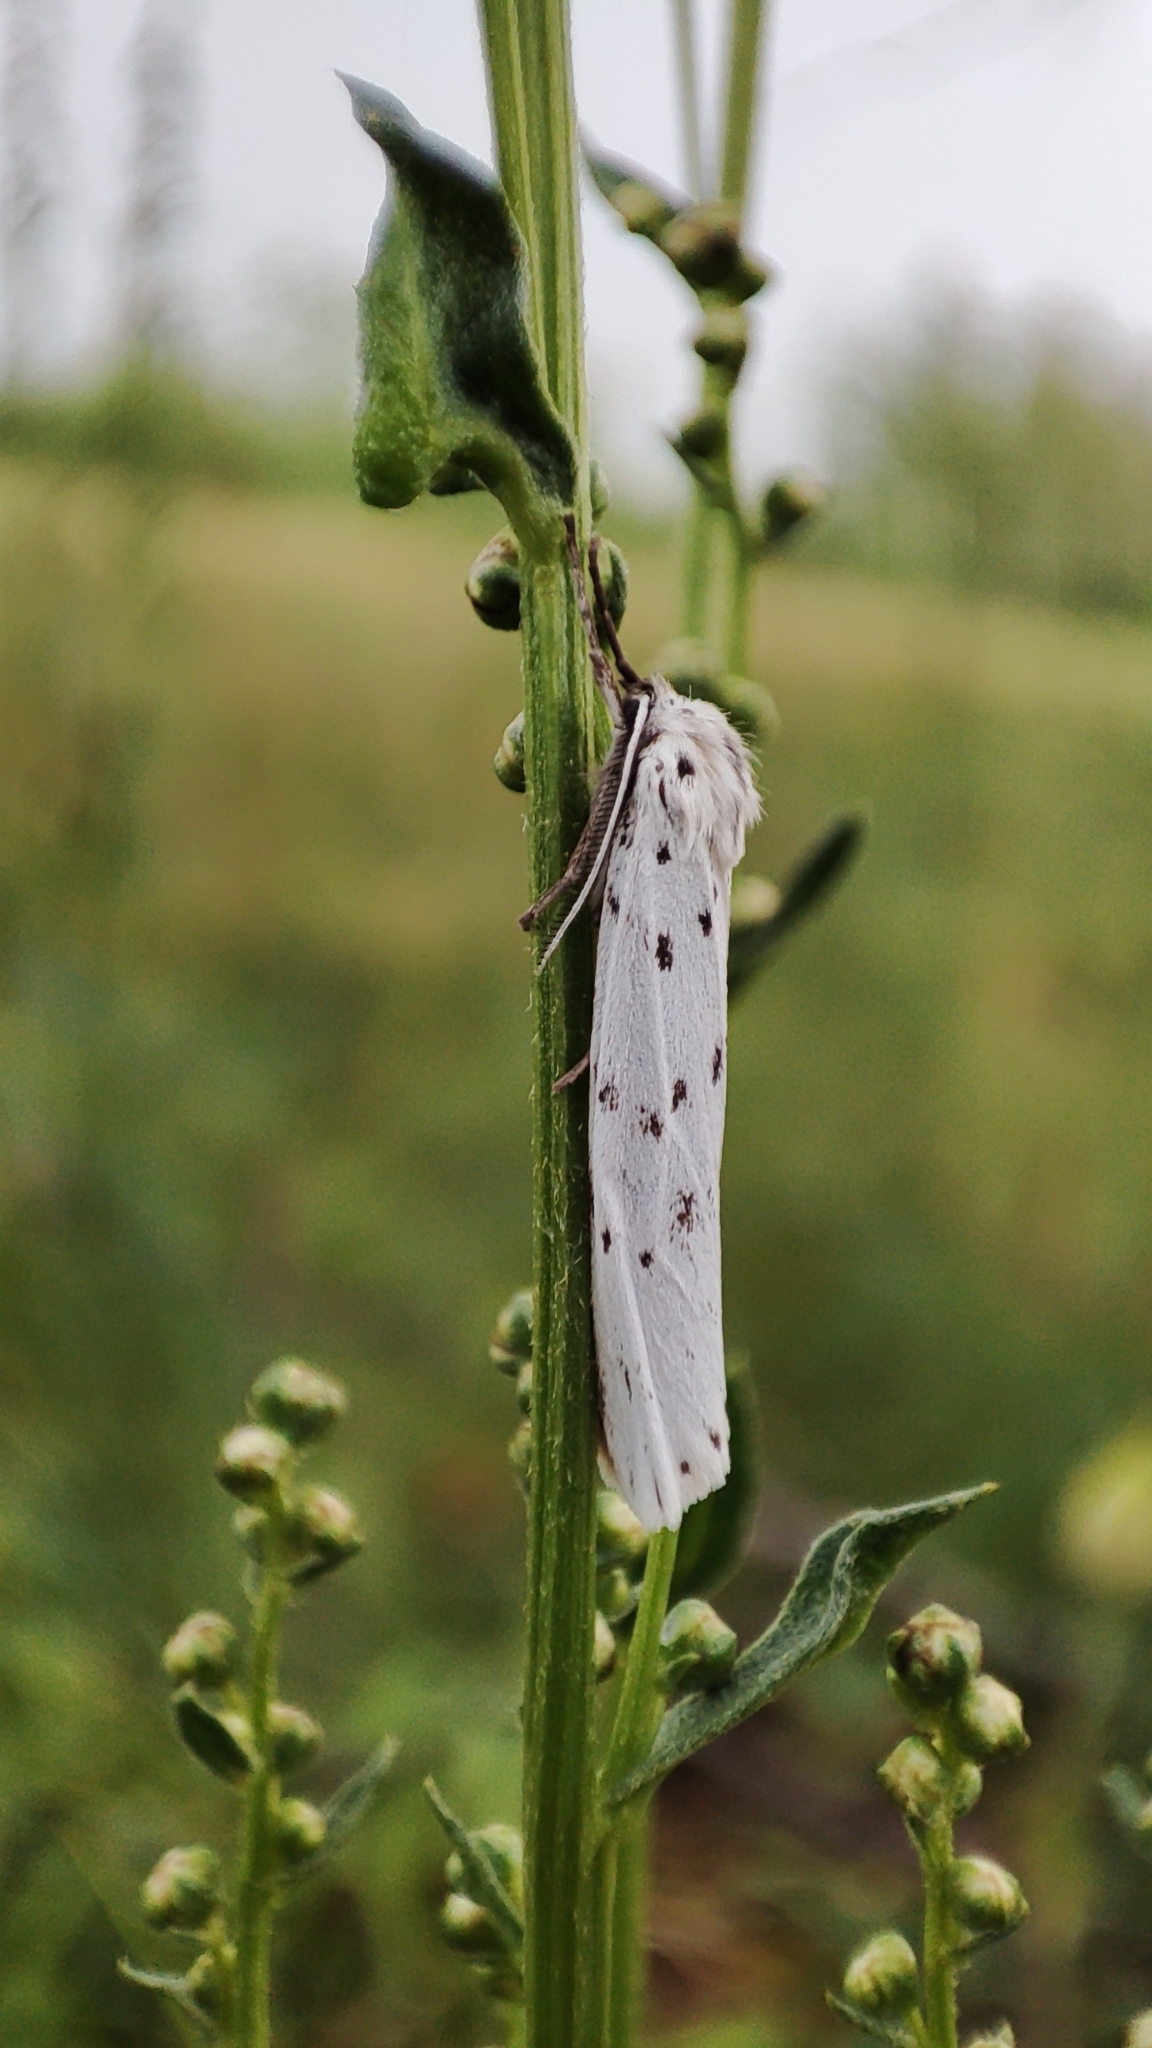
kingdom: Animalia
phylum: Arthropoda
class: Insecta
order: Lepidoptera
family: Erebidae
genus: Coscinia
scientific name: Coscinia cribraria
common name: Speckled footman
